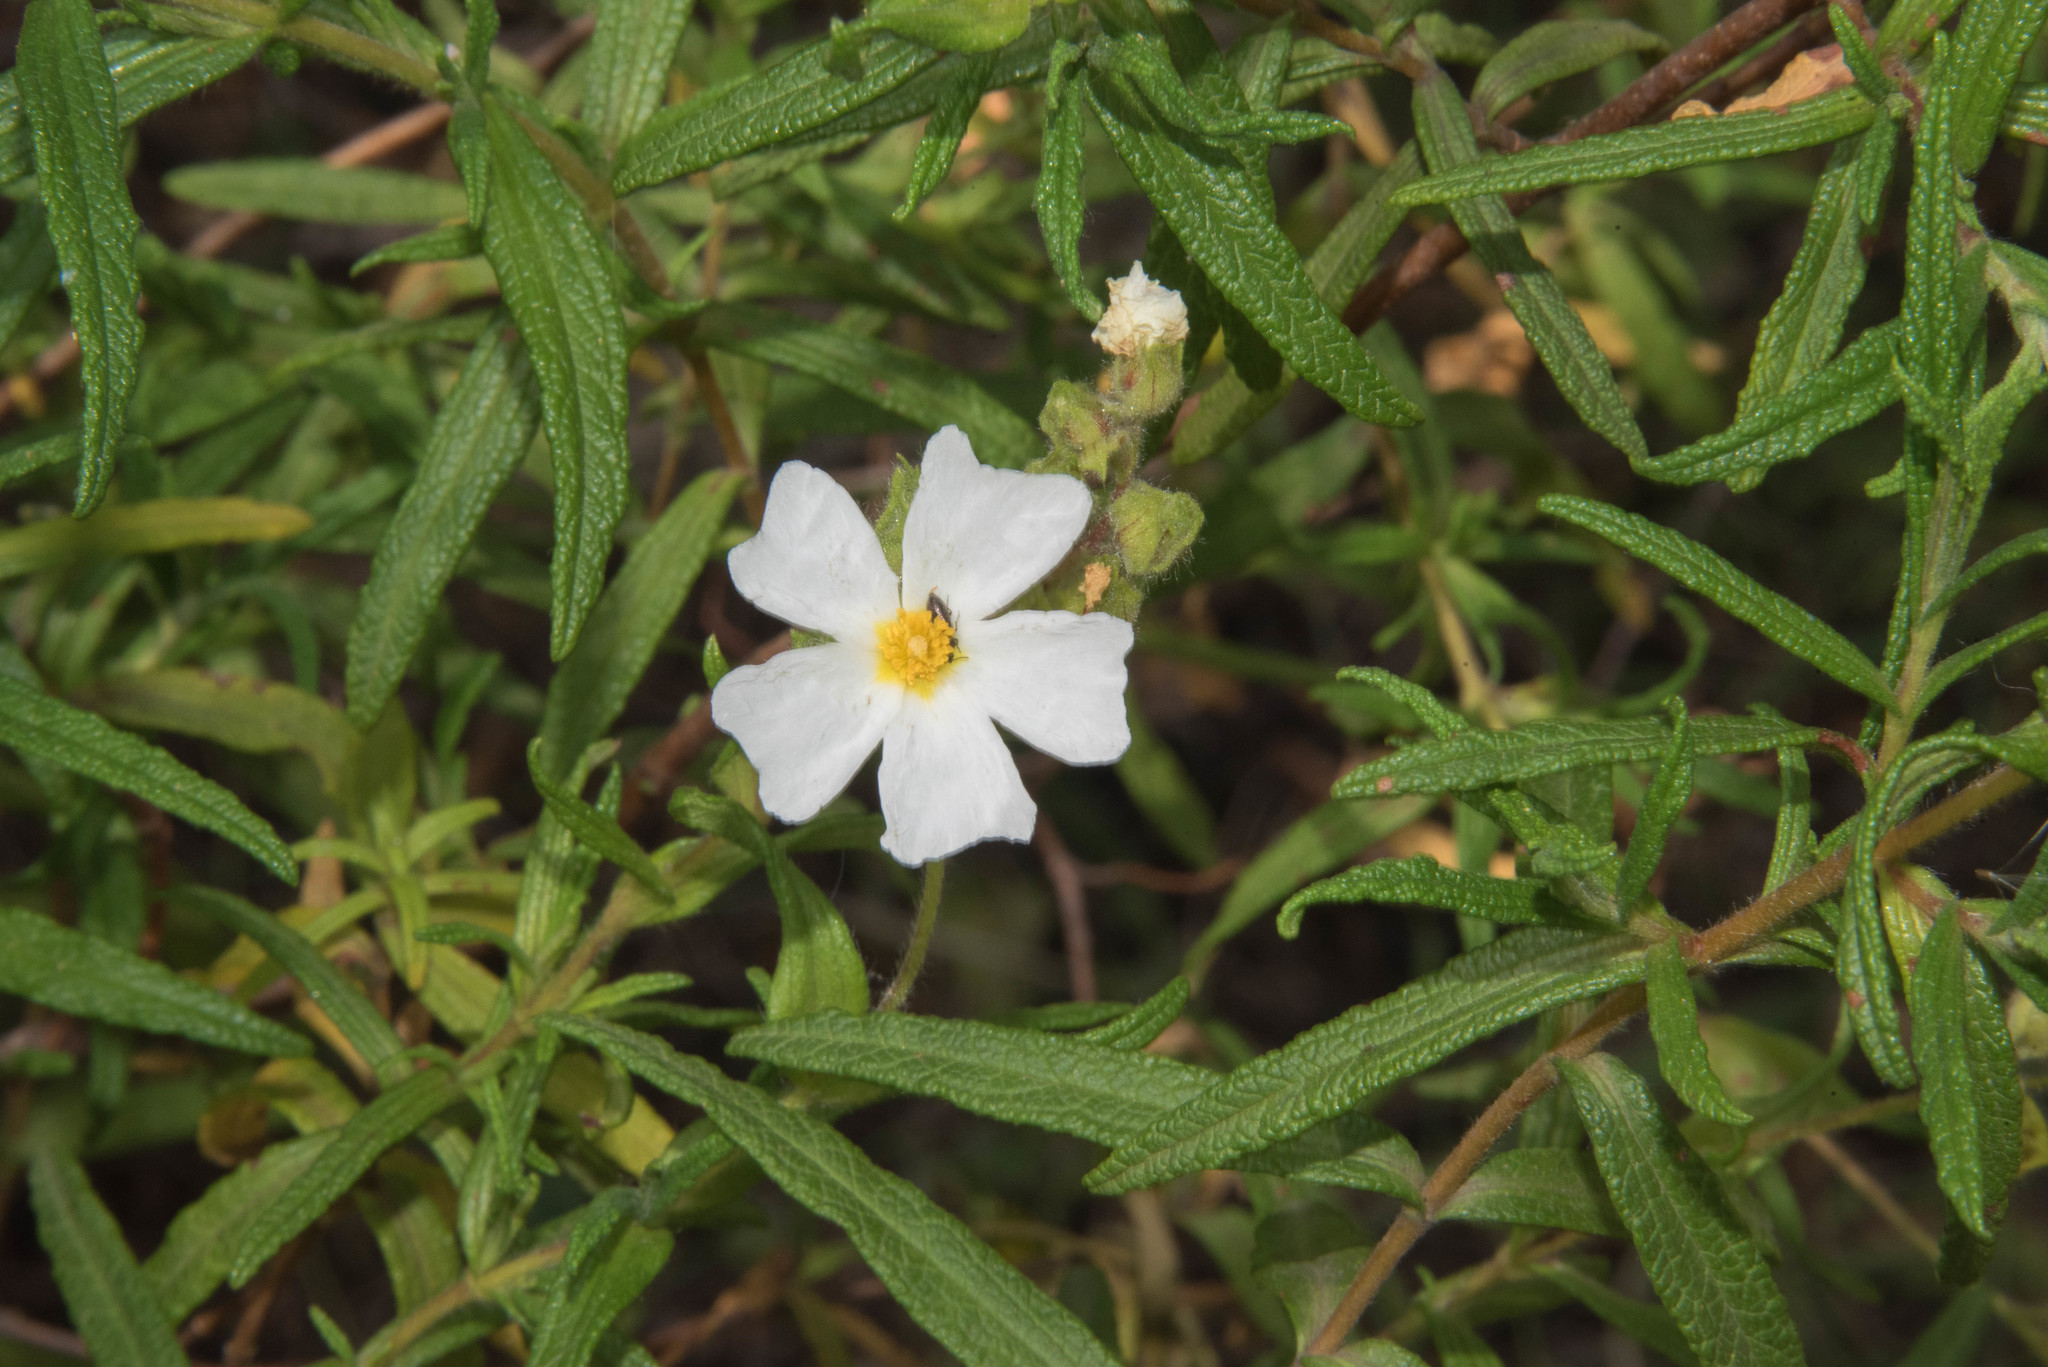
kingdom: Plantae
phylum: Tracheophyta
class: Magnoliopsida
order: Malvales
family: Cistaceae
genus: Cistus
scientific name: Cistus monspeliensis
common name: Montpelier cistus
